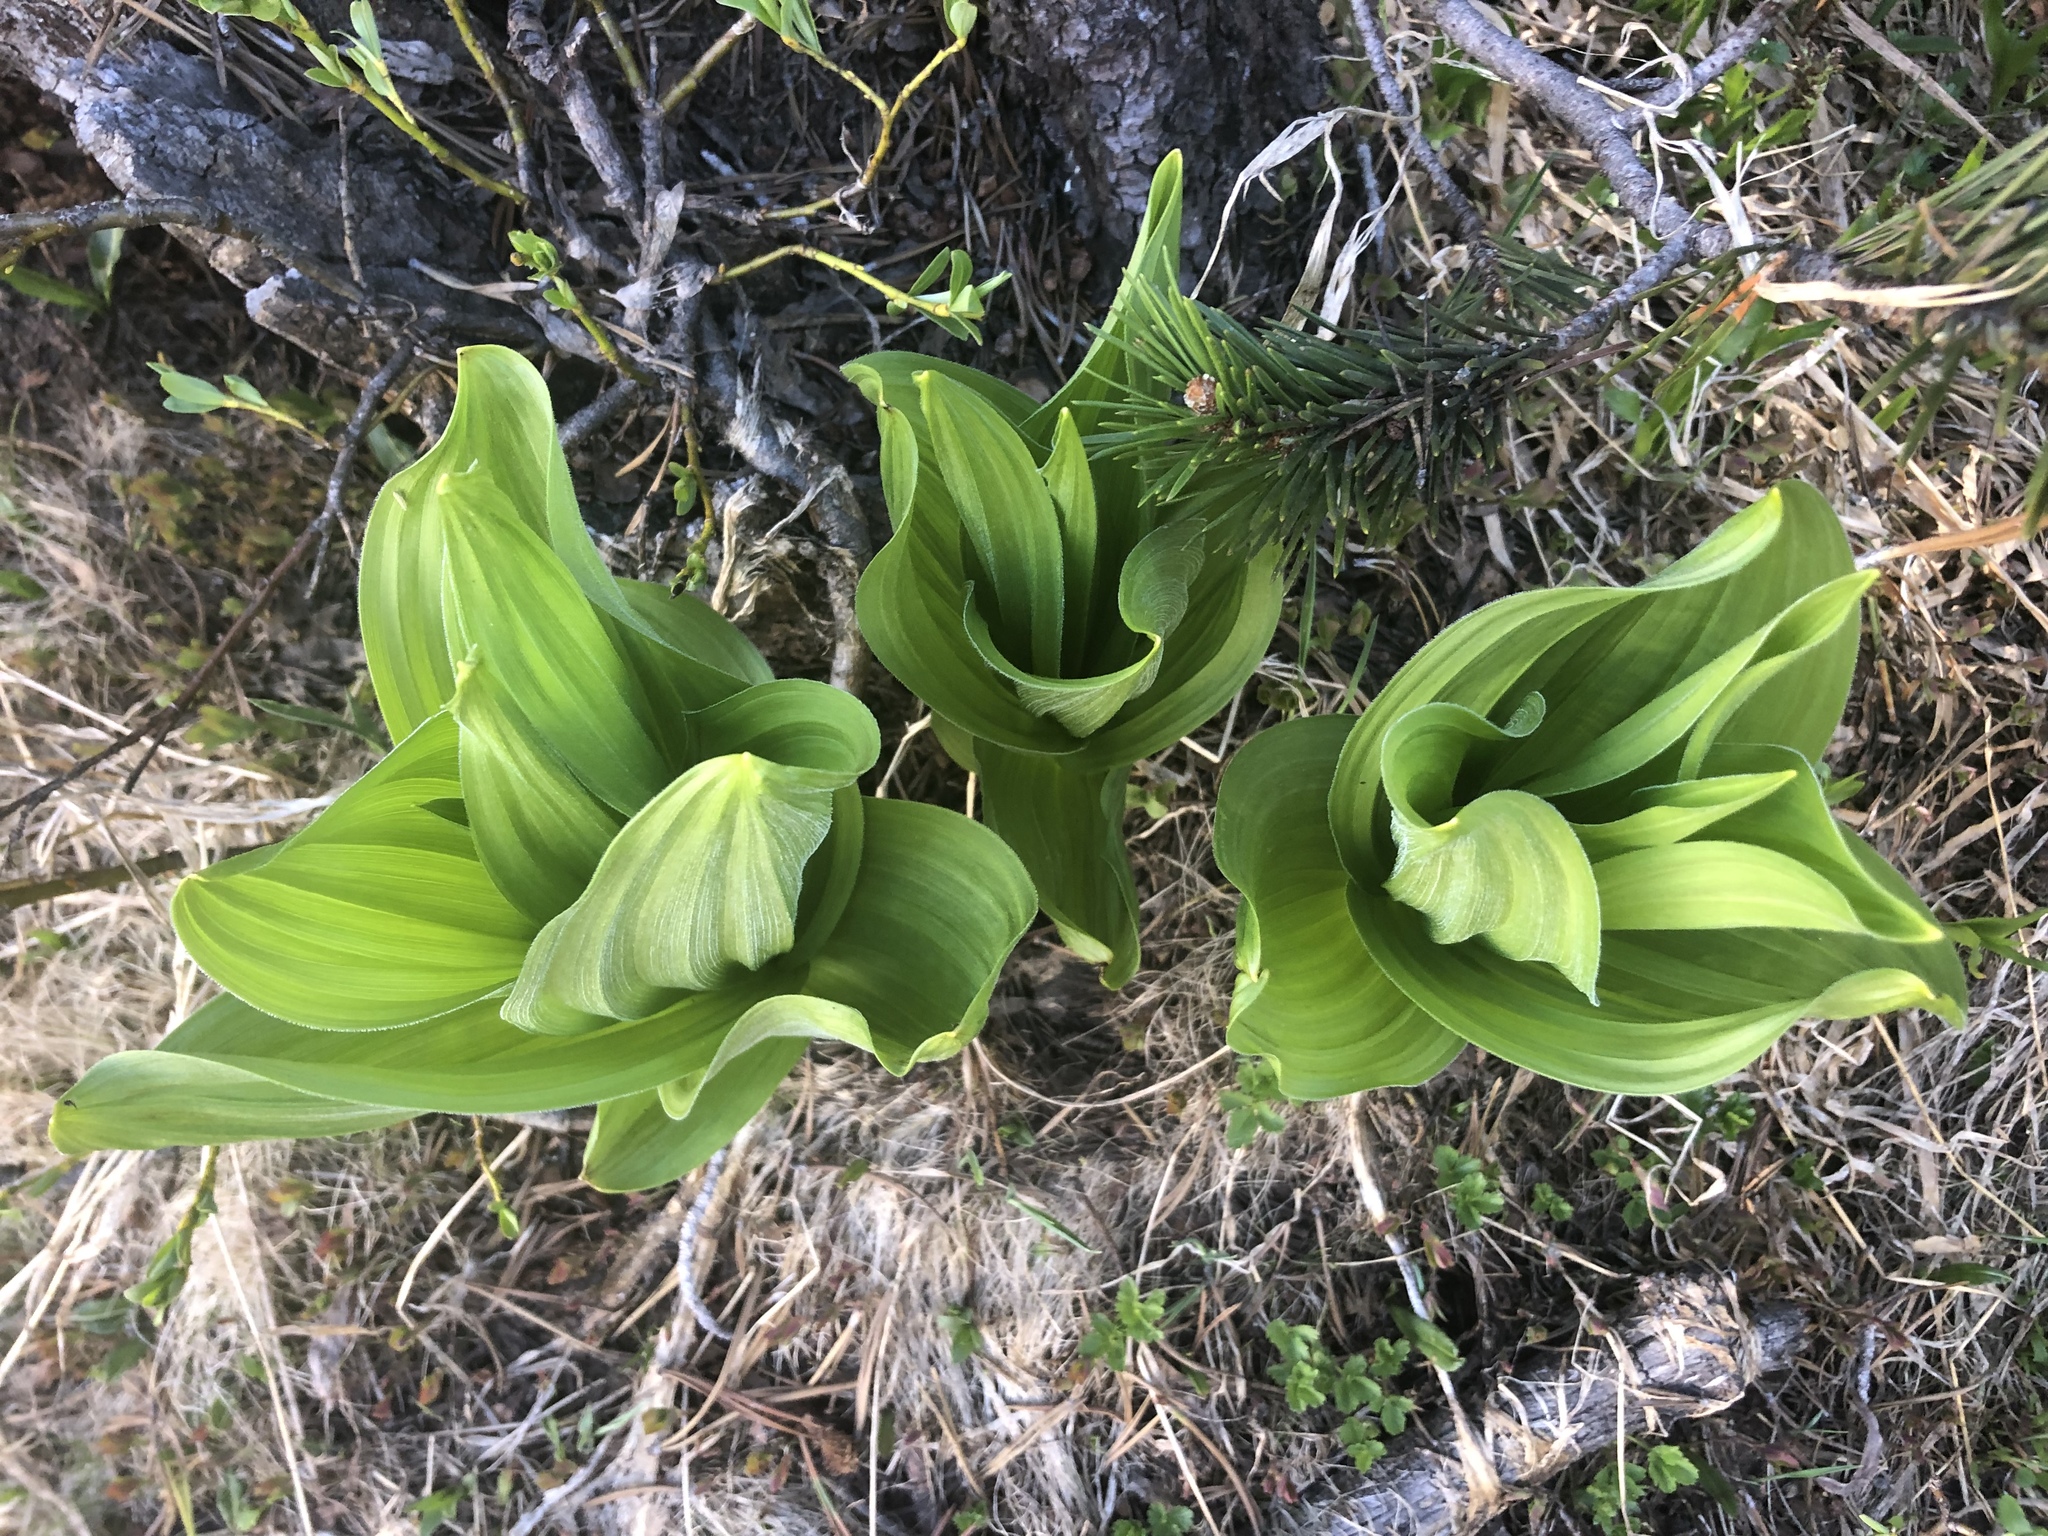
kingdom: Plantae
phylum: Tracheophyta
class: Liliopsida
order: Liliales
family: Melanthiaceae
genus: Veratrum
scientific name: Veratrum californicum
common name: California veratrum
